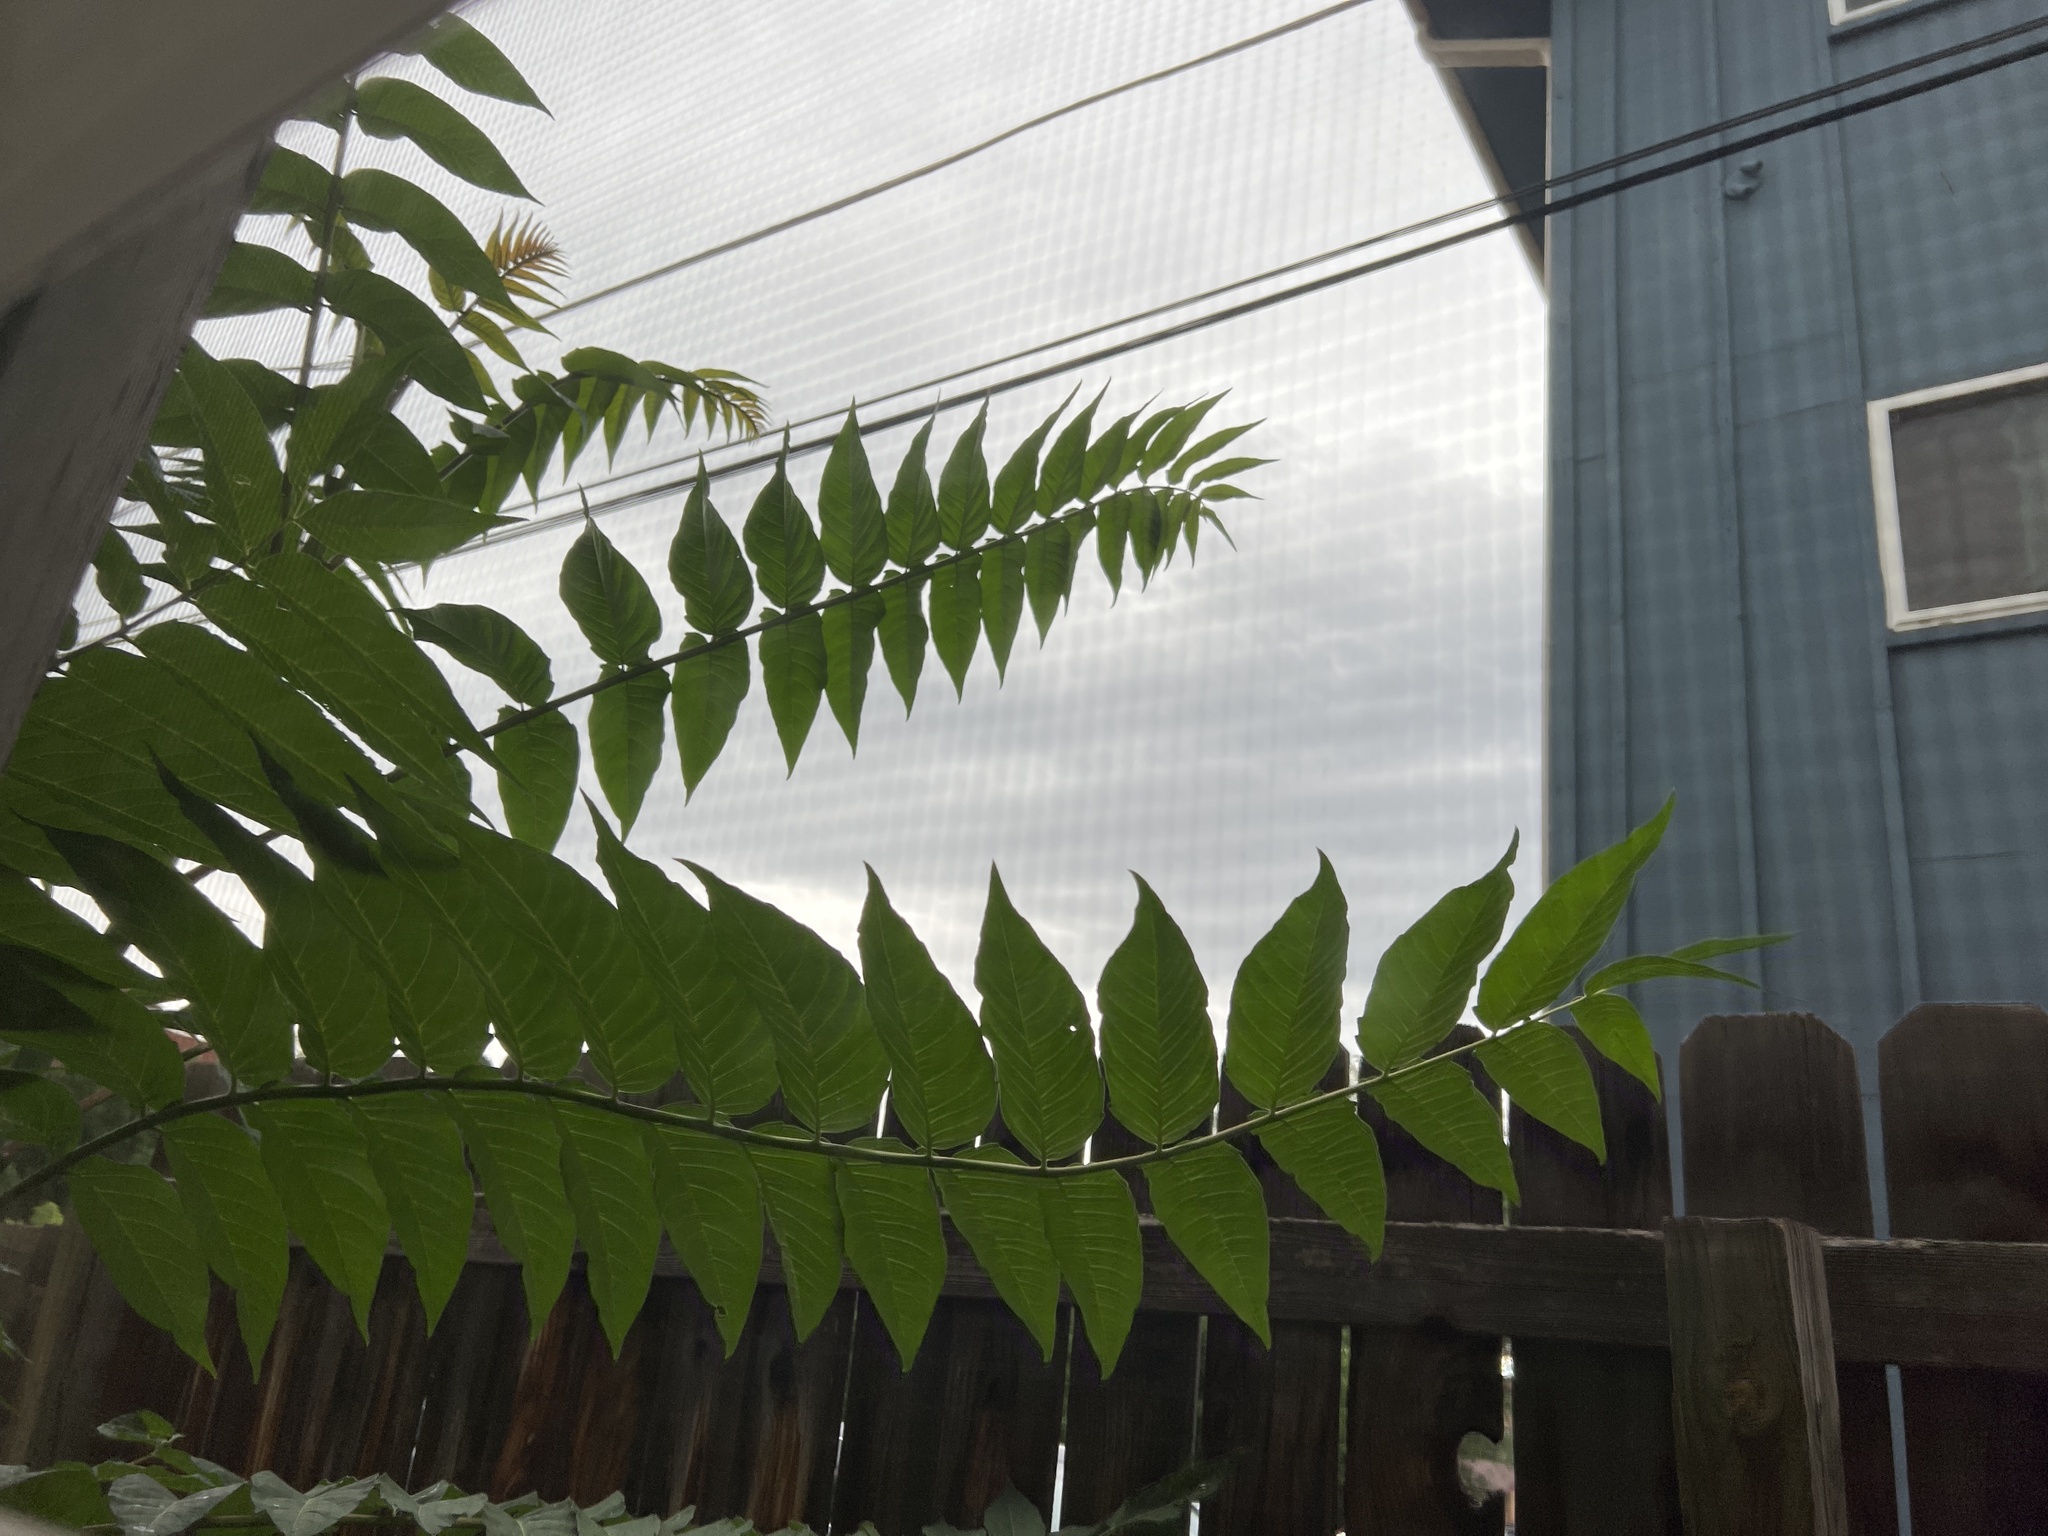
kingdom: Plantae
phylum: Tracheophyta
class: Magnoliopsida
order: Sapindales
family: Simaroubaceae
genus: Ailanthus
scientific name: Ailanthus altissima
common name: Tree-of-heaven
